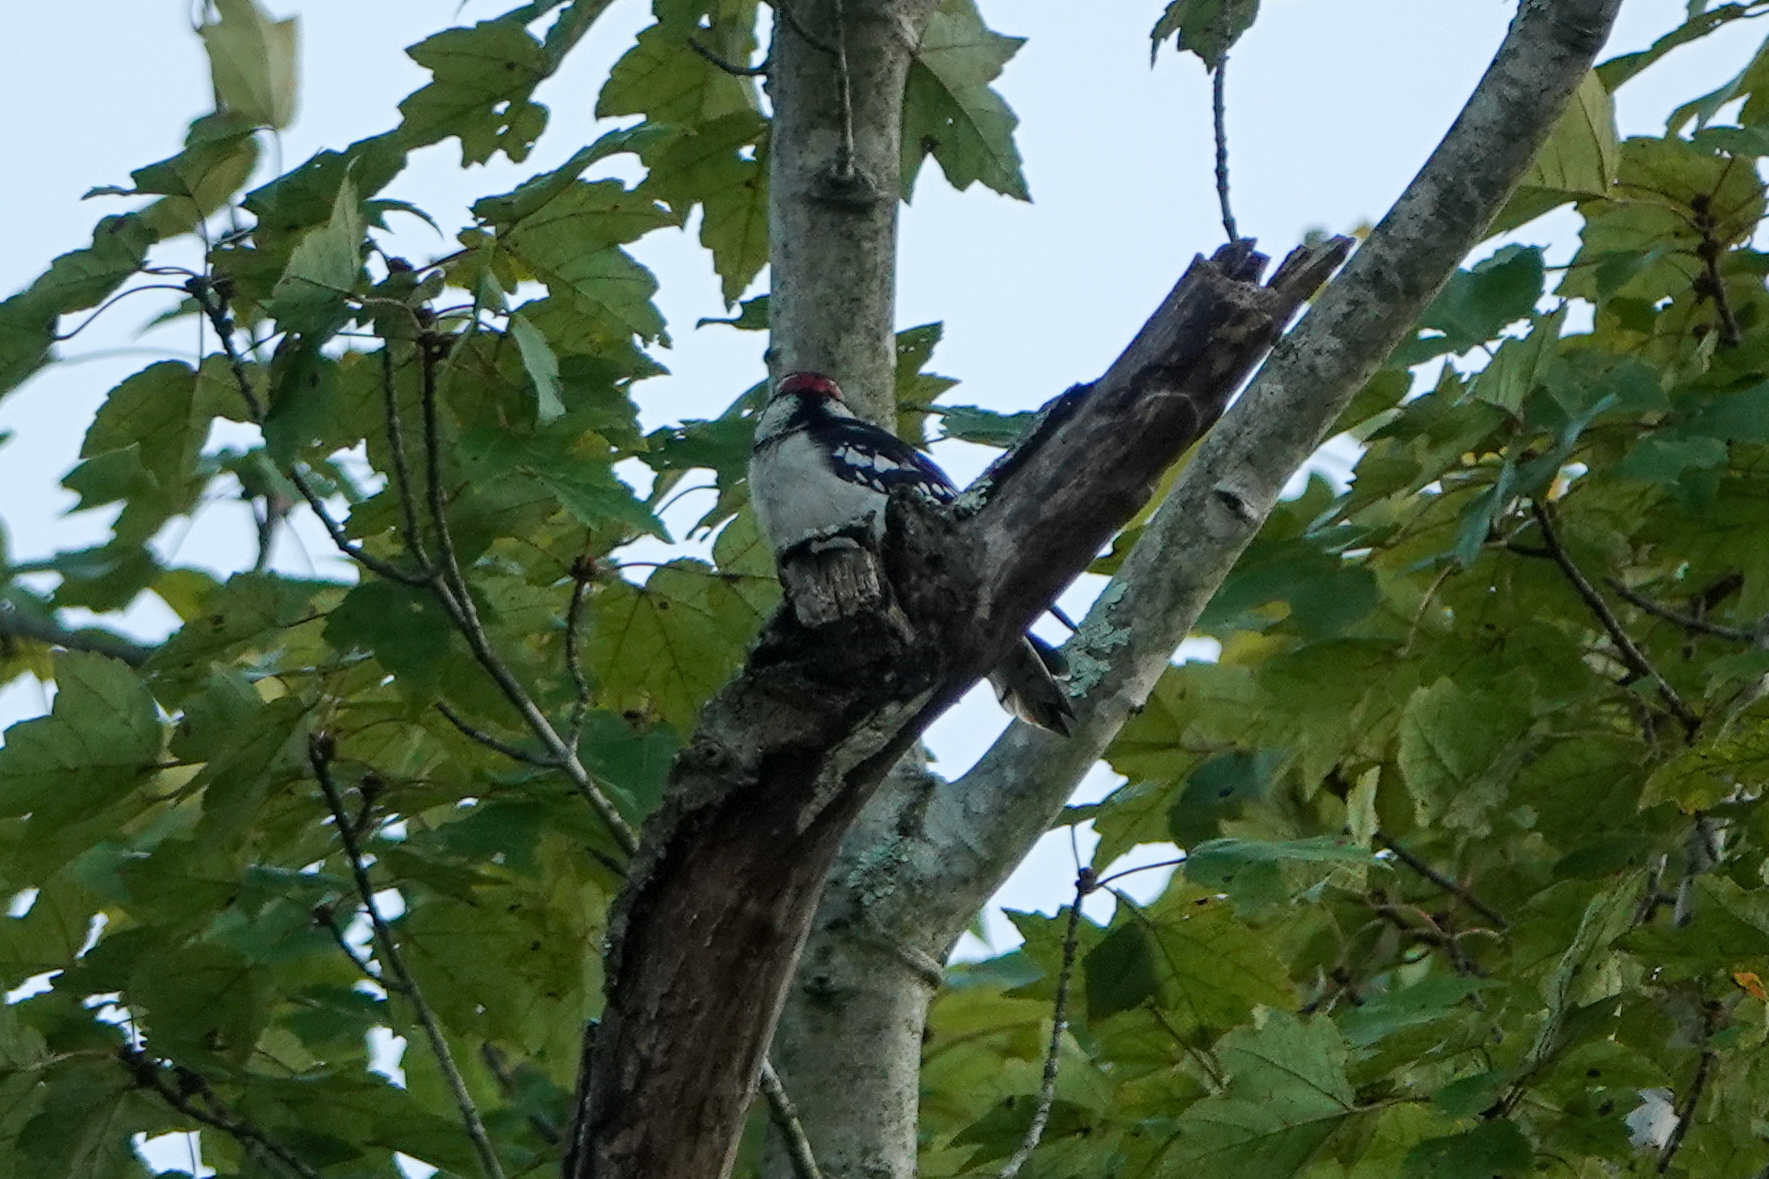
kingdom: Animalia
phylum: Chordata
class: Aves
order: Piciformes
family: Picidae
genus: Dryobates
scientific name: Dryobates pubescens
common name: Downy woodpecker
